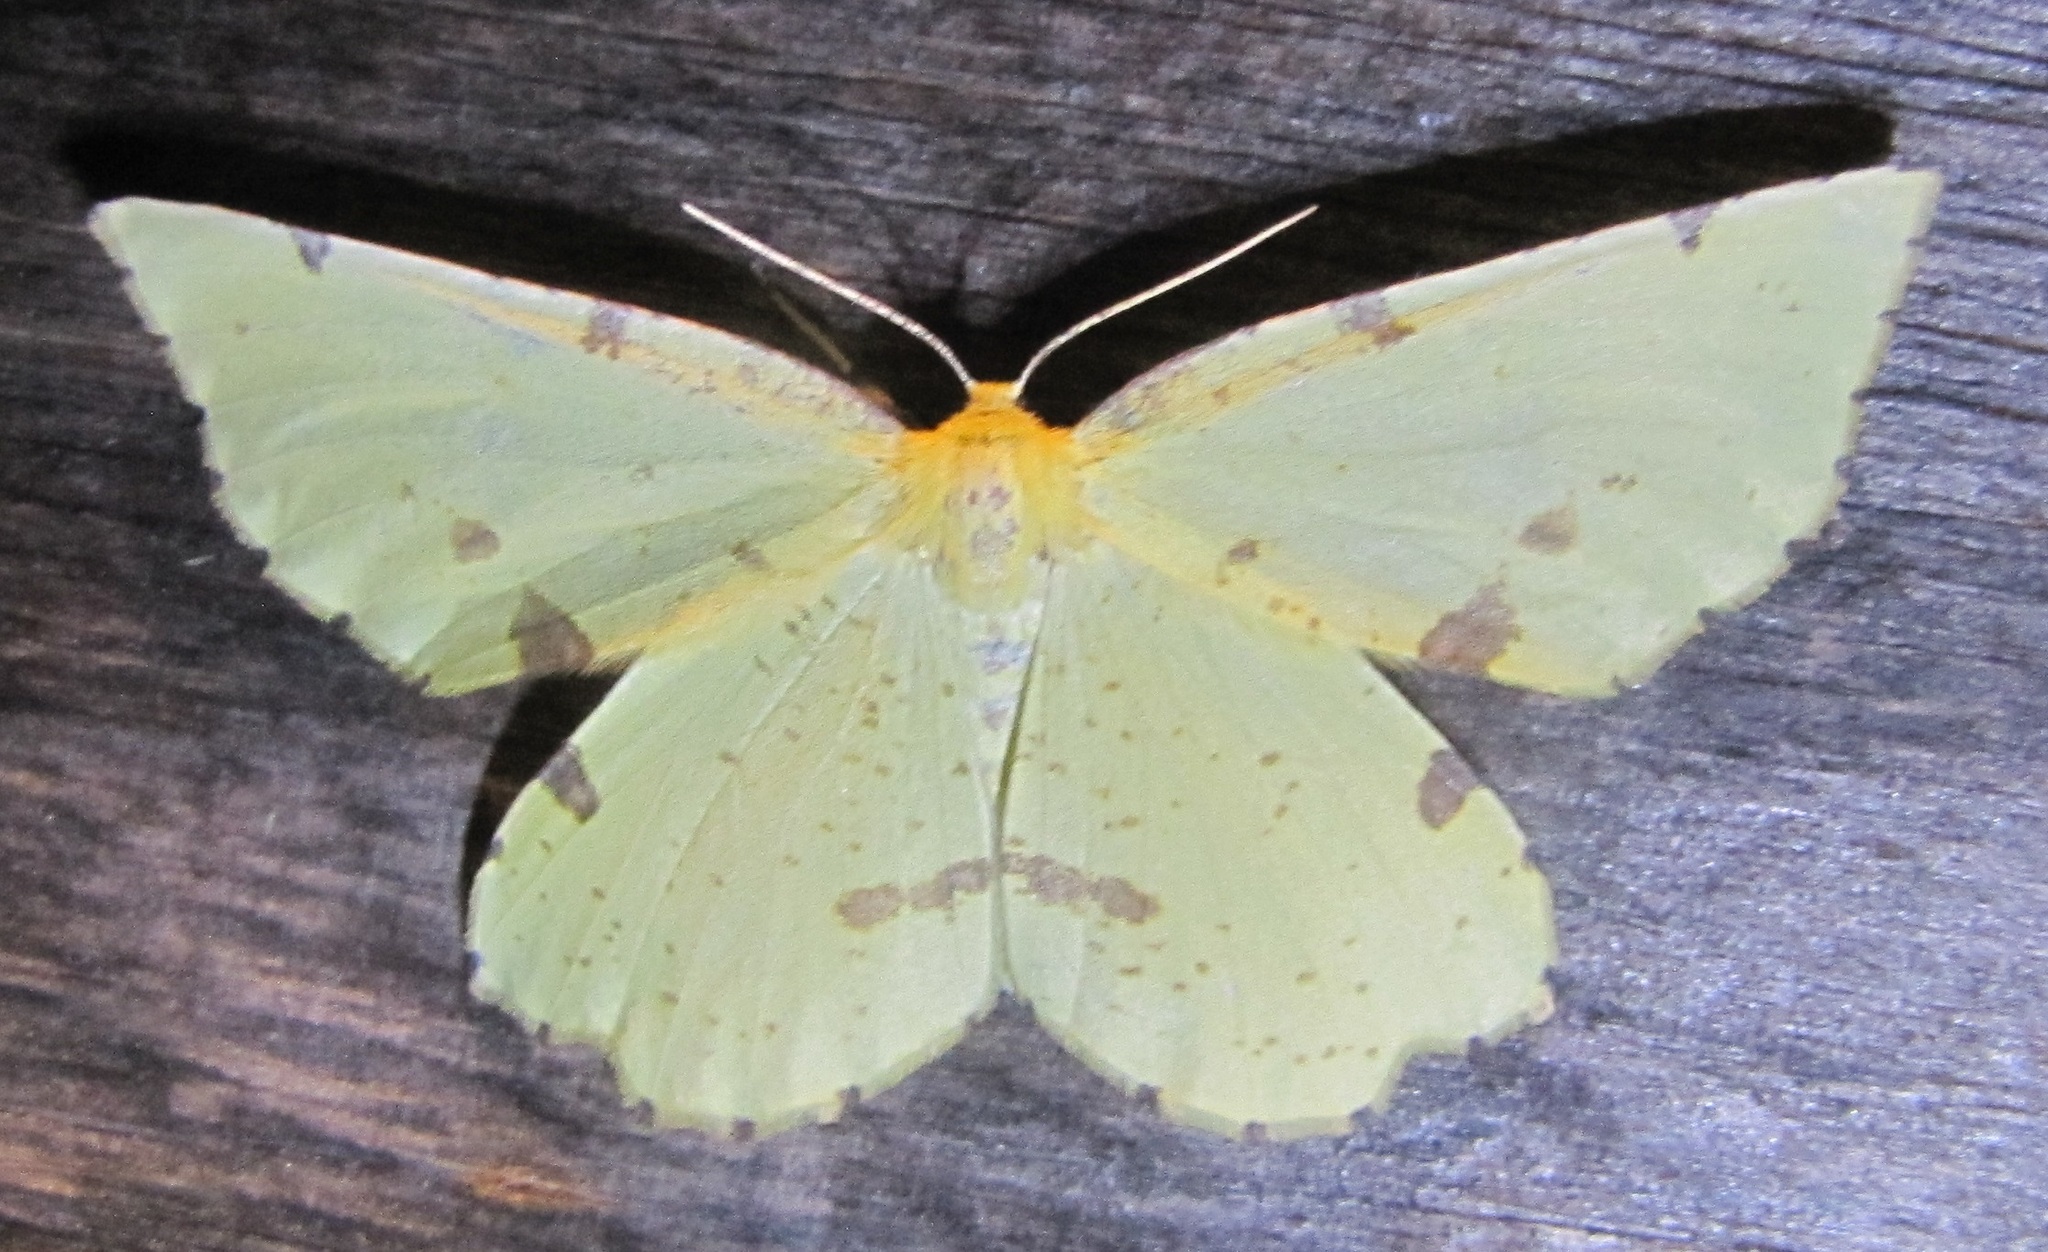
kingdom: Animalia
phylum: Arthropoda
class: Insecta
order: Lepidoptera
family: Geometridae
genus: Xanthotype
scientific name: Xanthotype
